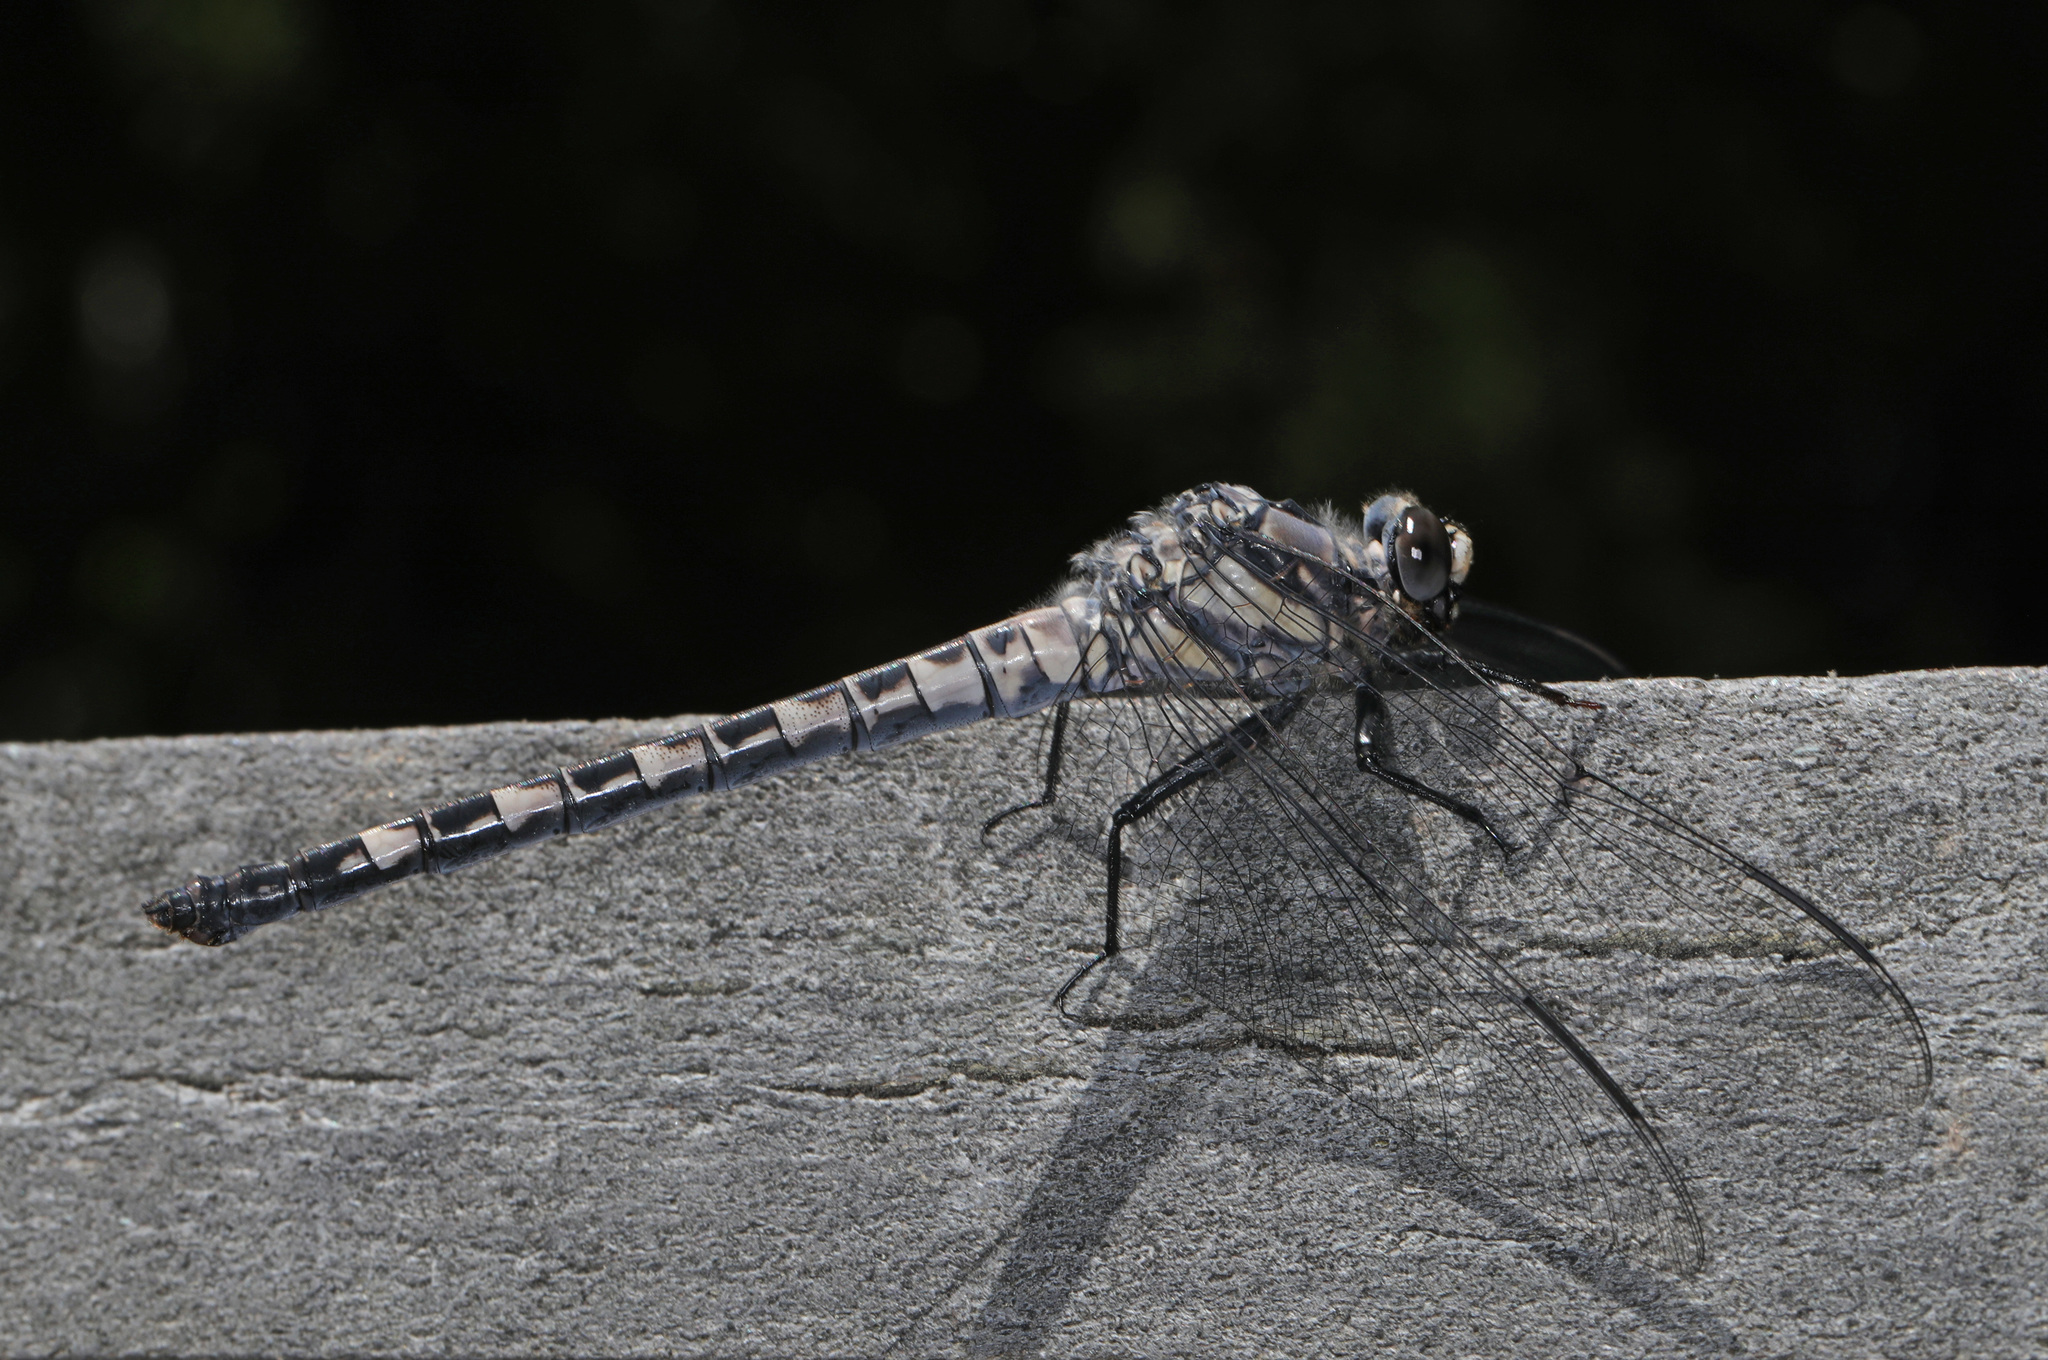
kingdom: Animalia
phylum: Arthropoda
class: Insecta
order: Odonata
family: Petaluridae
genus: Tachopteryx
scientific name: Tachopteryx thoreyi
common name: Gray petaltail
